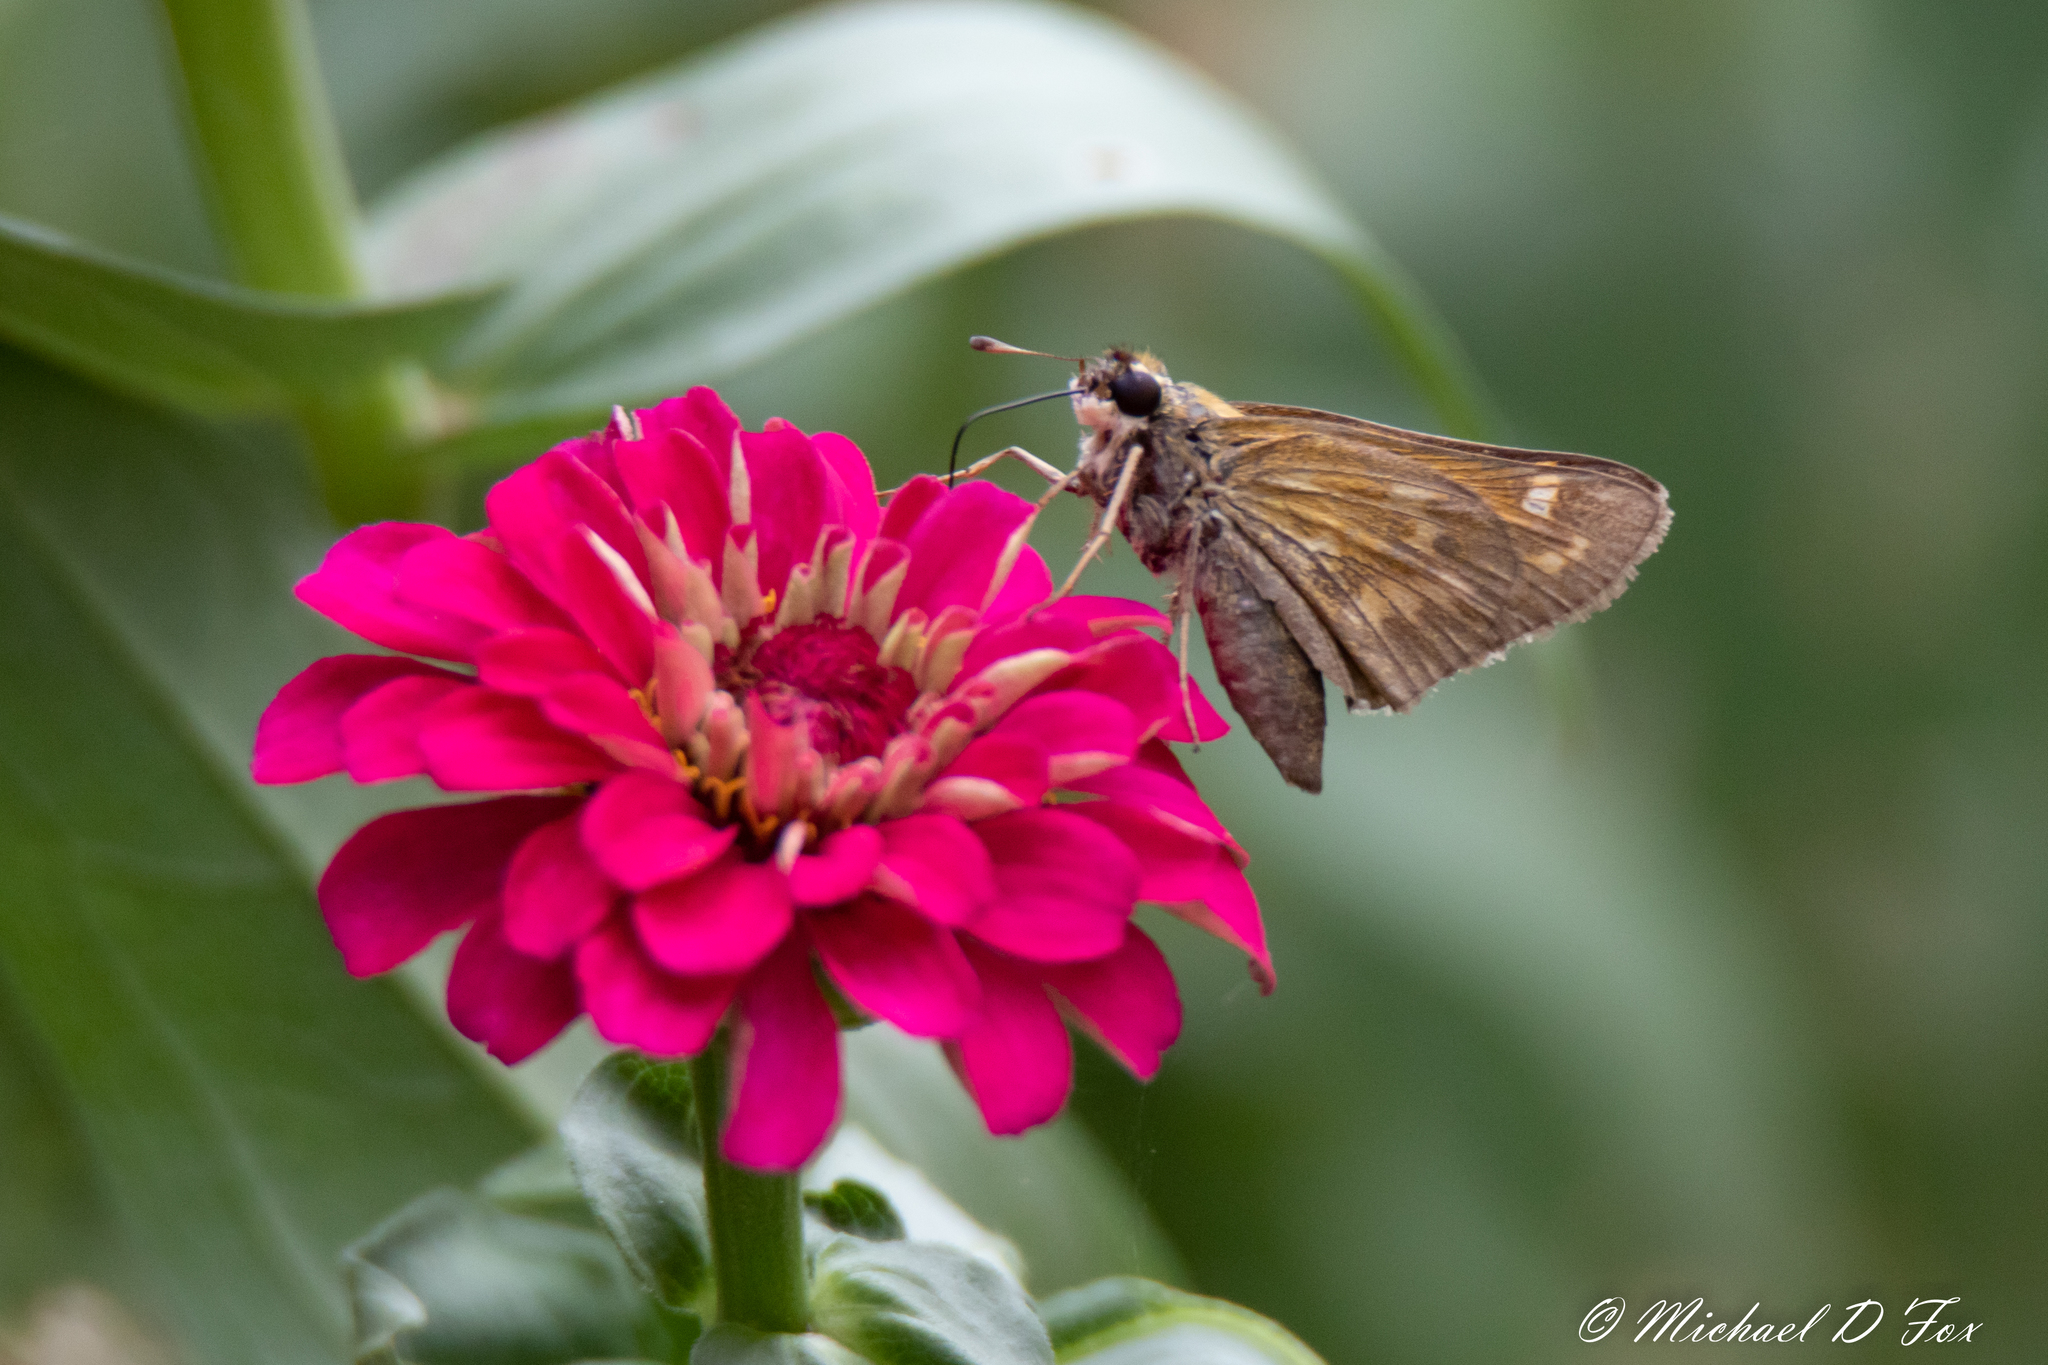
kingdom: Animalia
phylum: Arthropoda
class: Insecta
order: Lepidoptera
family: Hesperiidae
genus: Atalopedes
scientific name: Atalopedes
